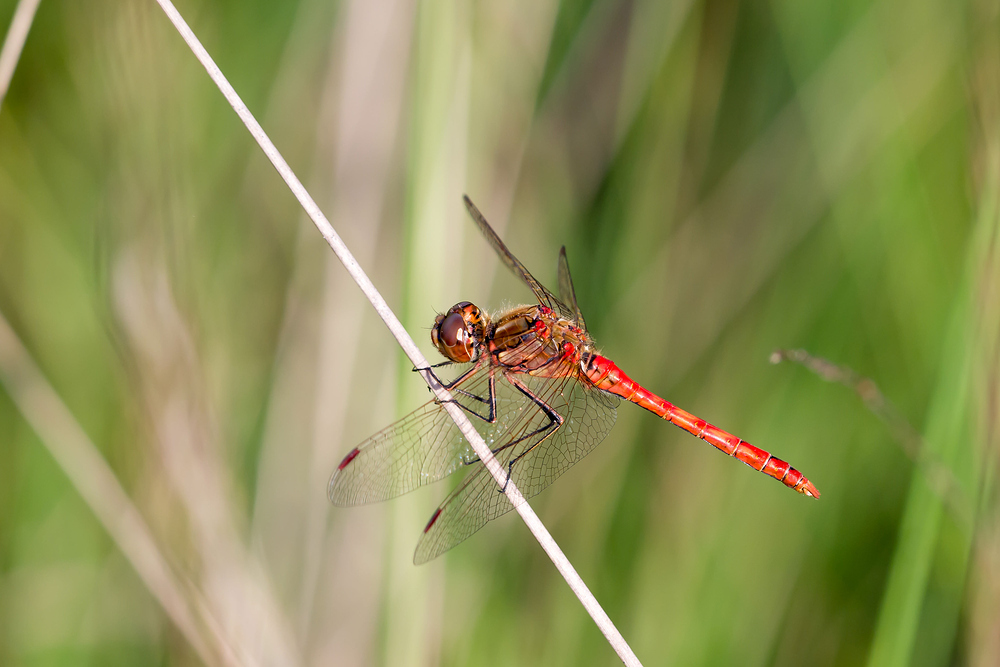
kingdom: Animalia
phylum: Arthropoda
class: Insecta
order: Odonata
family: Libellulidae
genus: Sympetrum
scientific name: Sympetrum vulgatum
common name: Vagrant darter
